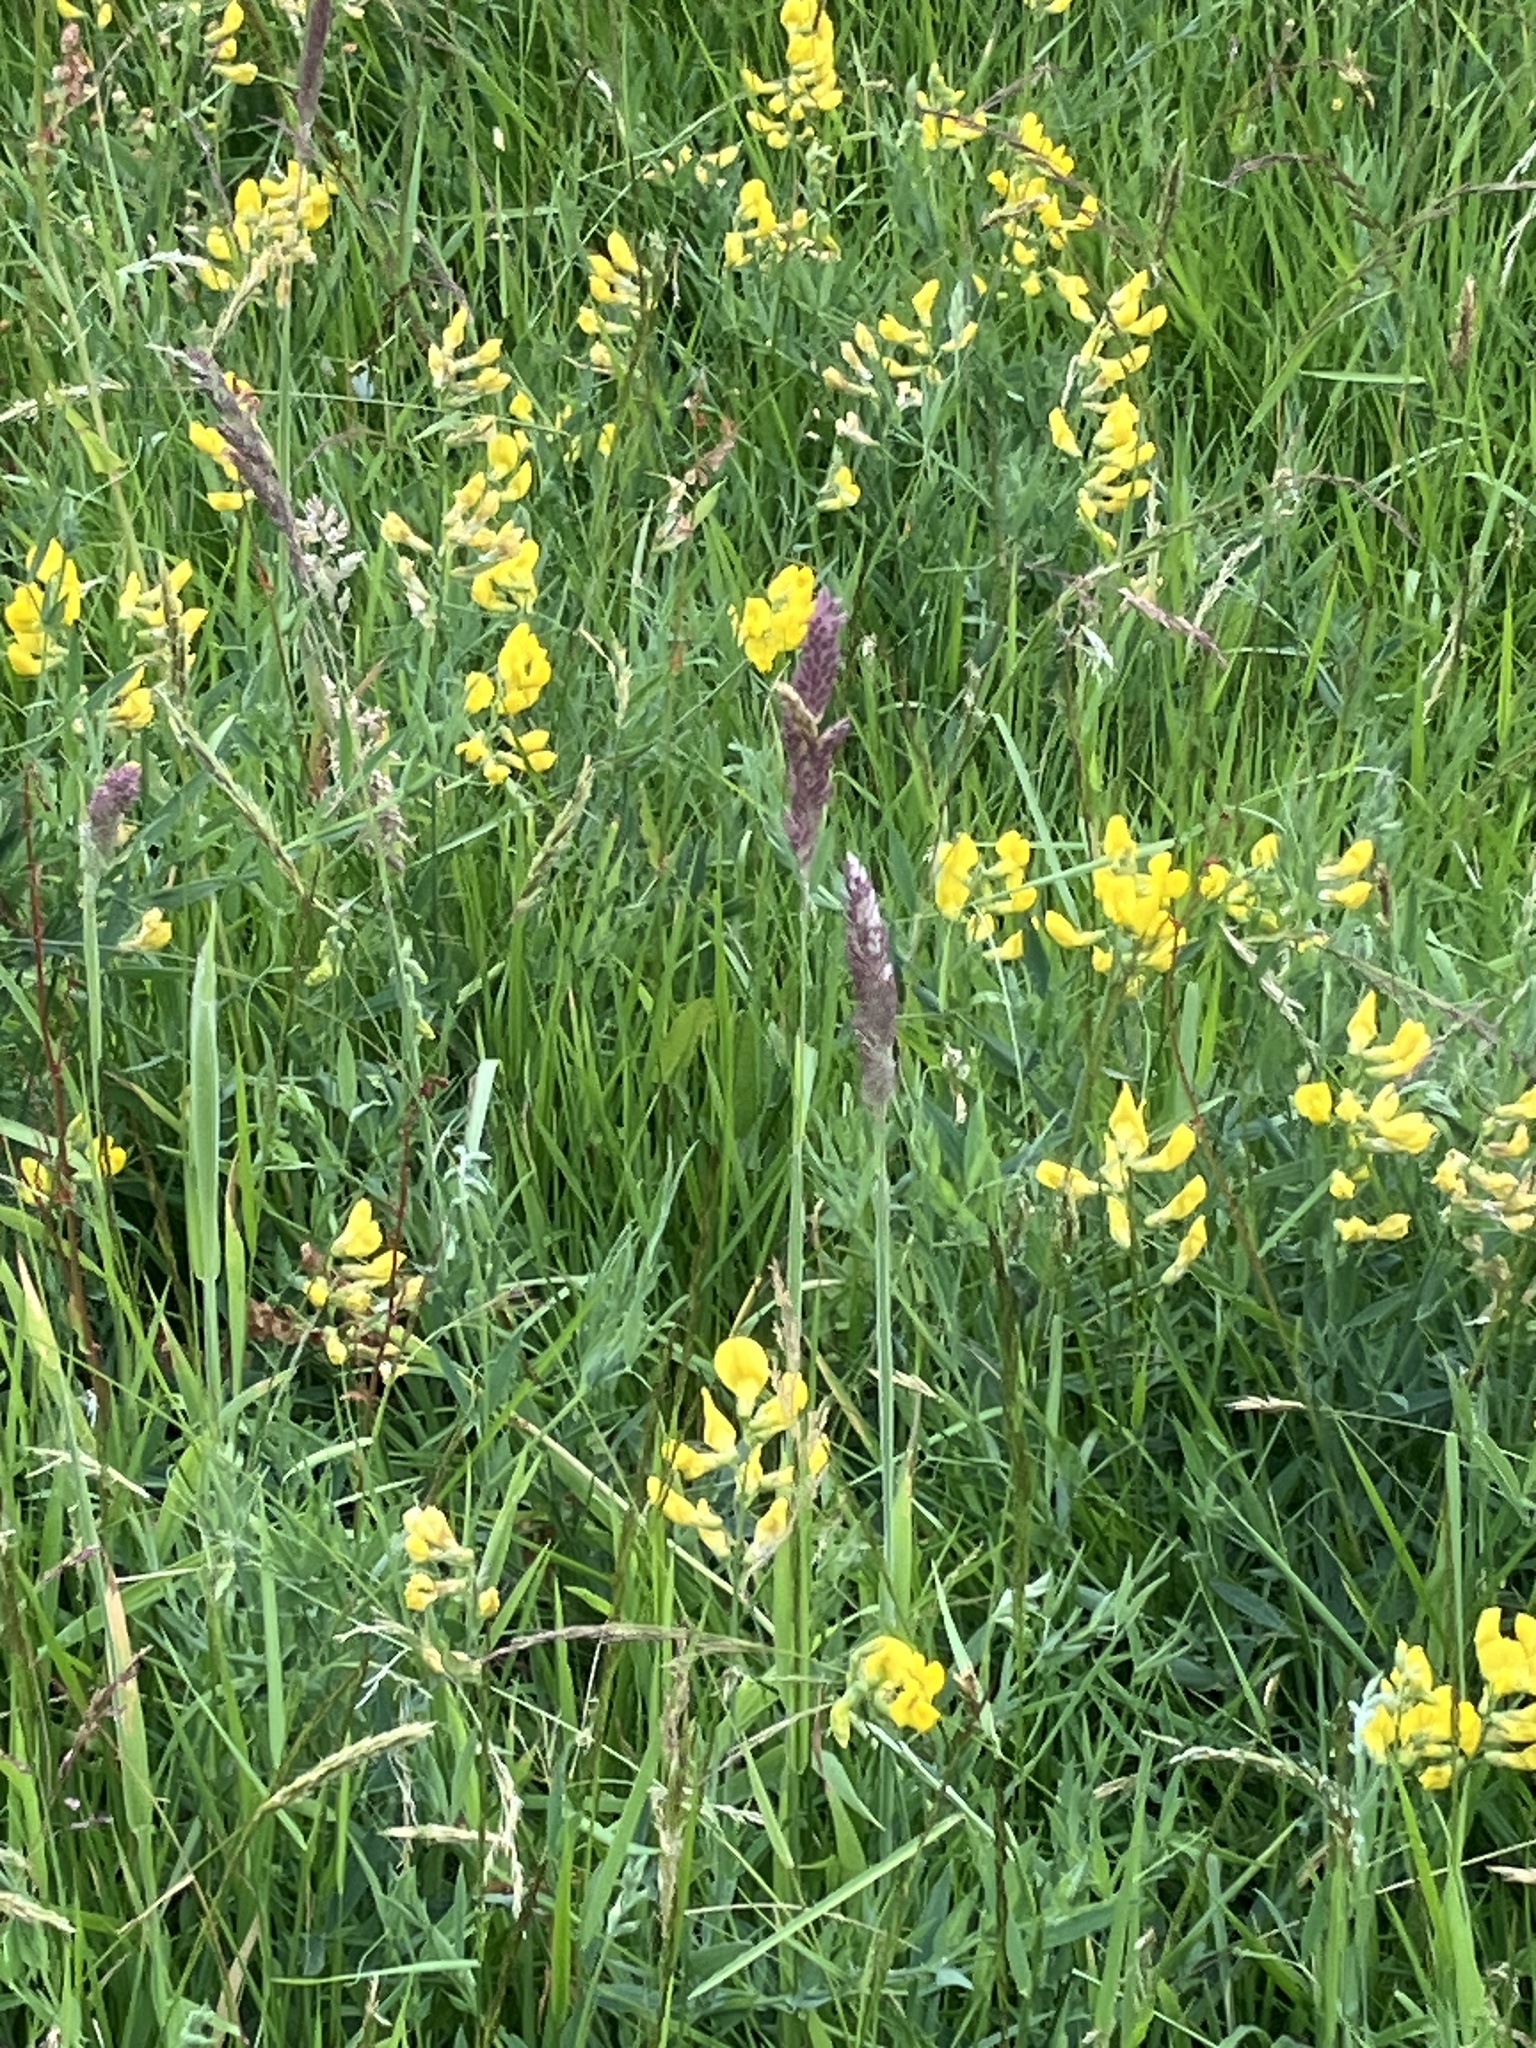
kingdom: Plantae
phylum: Tracheophyta
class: Magnoliopsida
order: Fabales
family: Fabaceae
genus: Lathyrus
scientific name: Lathyrus pratensis
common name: Meadow vetchling
